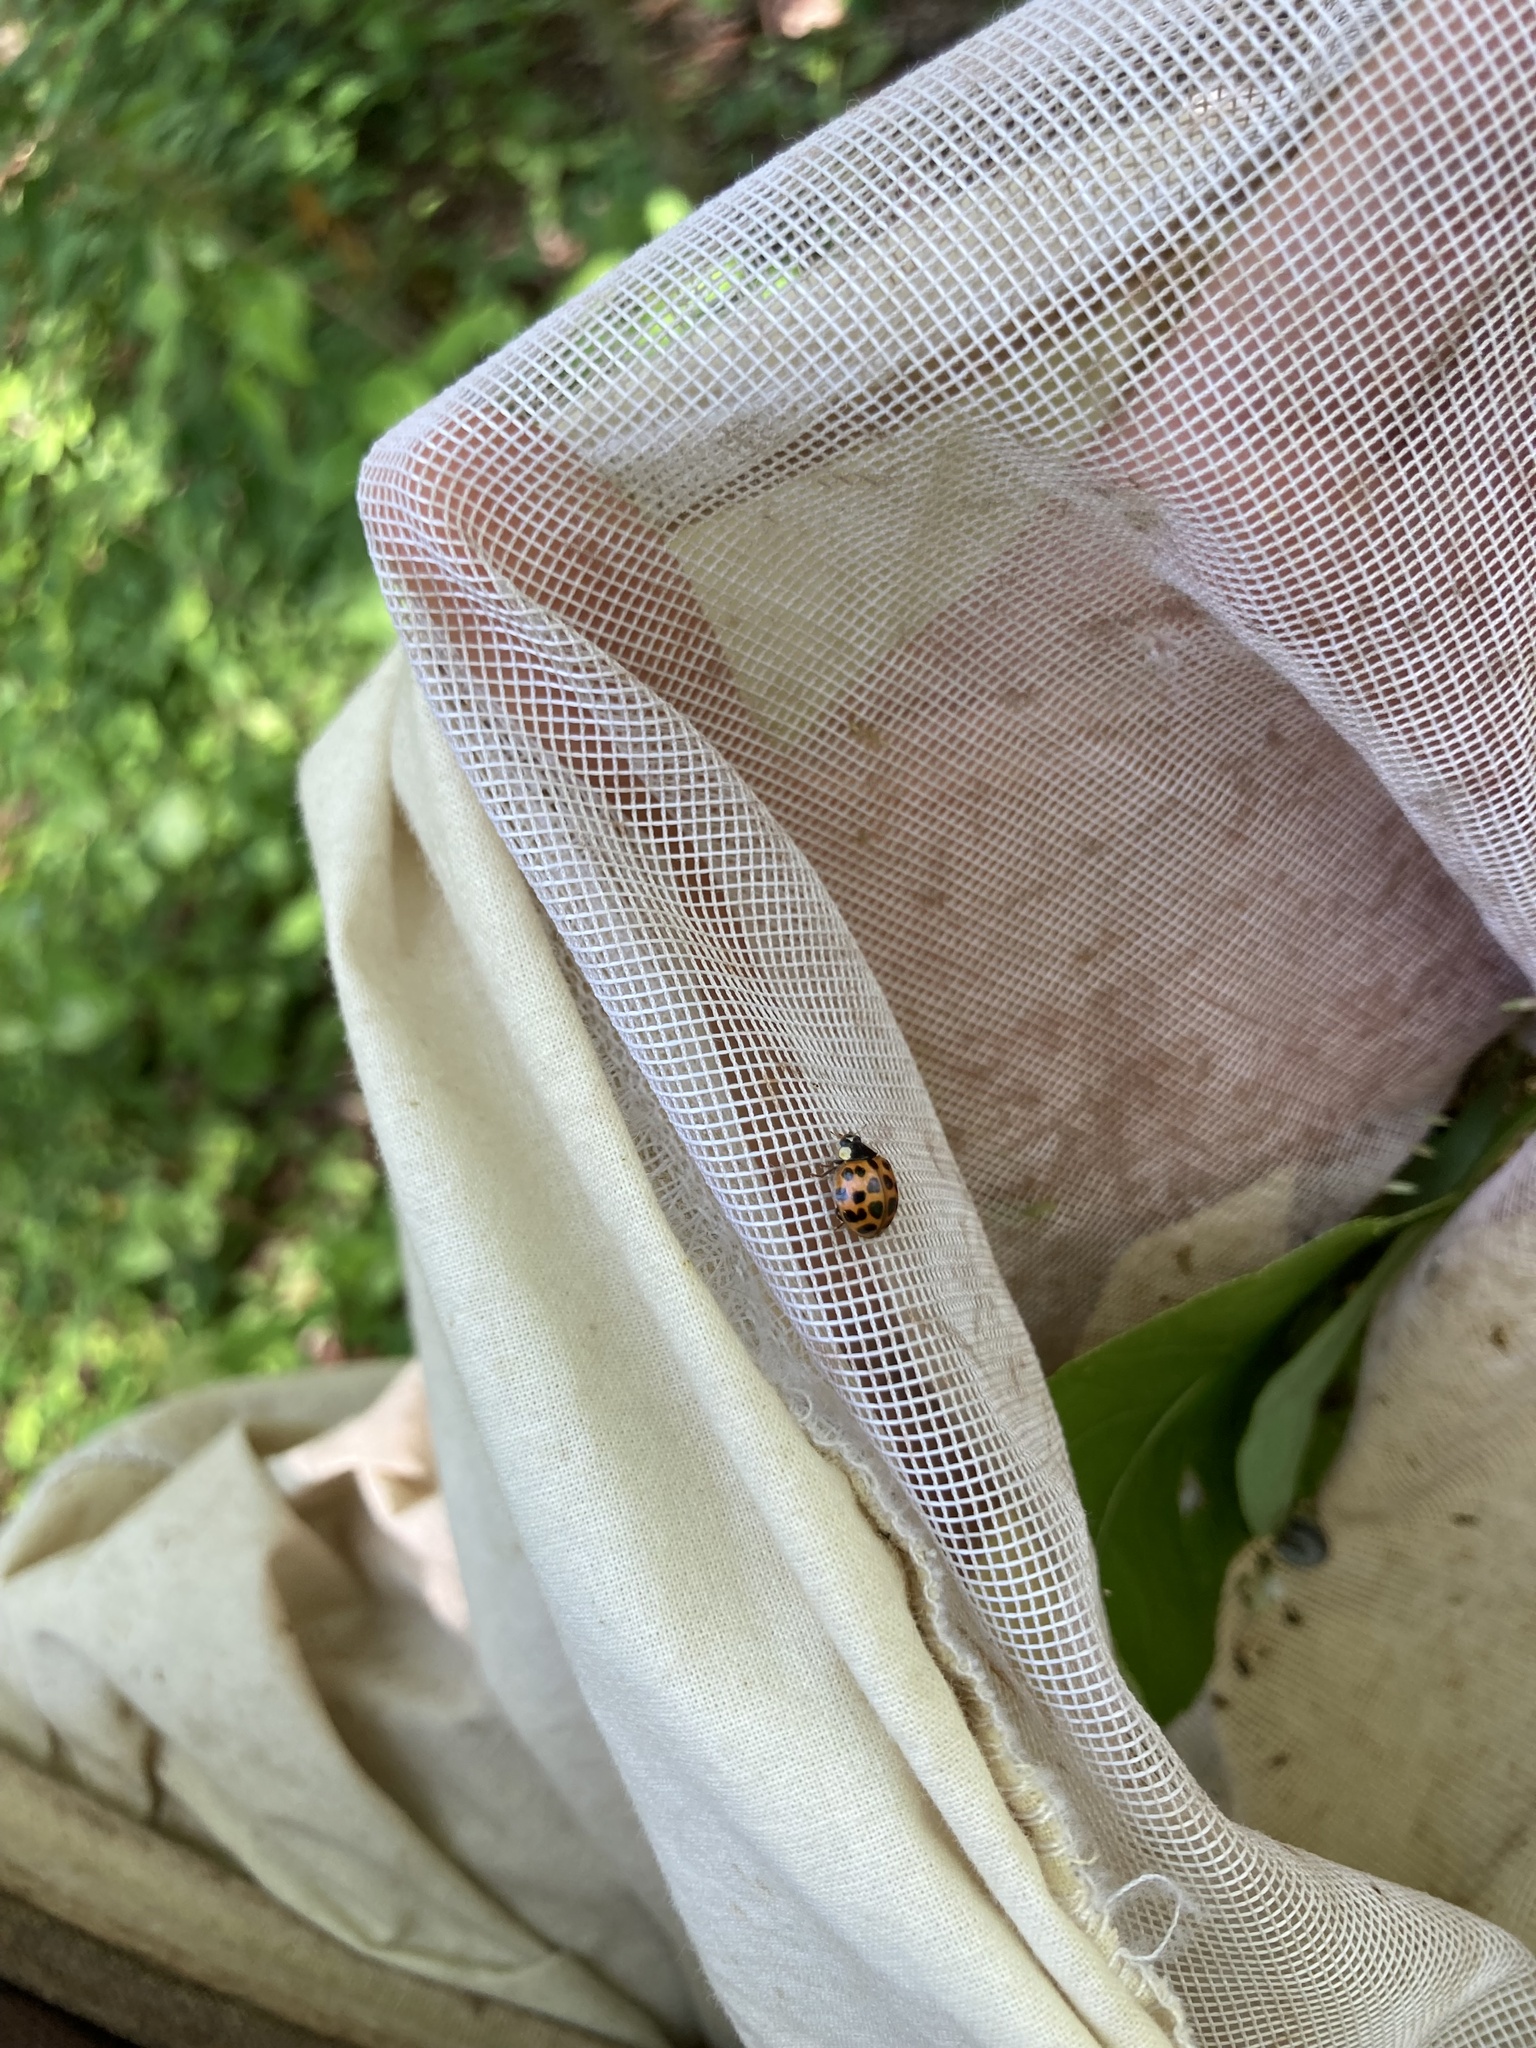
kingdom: Animalia
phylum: Arthropoda
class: Insecta
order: Coleoptera
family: Coccinellidae
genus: Harmonia
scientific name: Harmonia axyridis
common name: Harlequin ladybird
